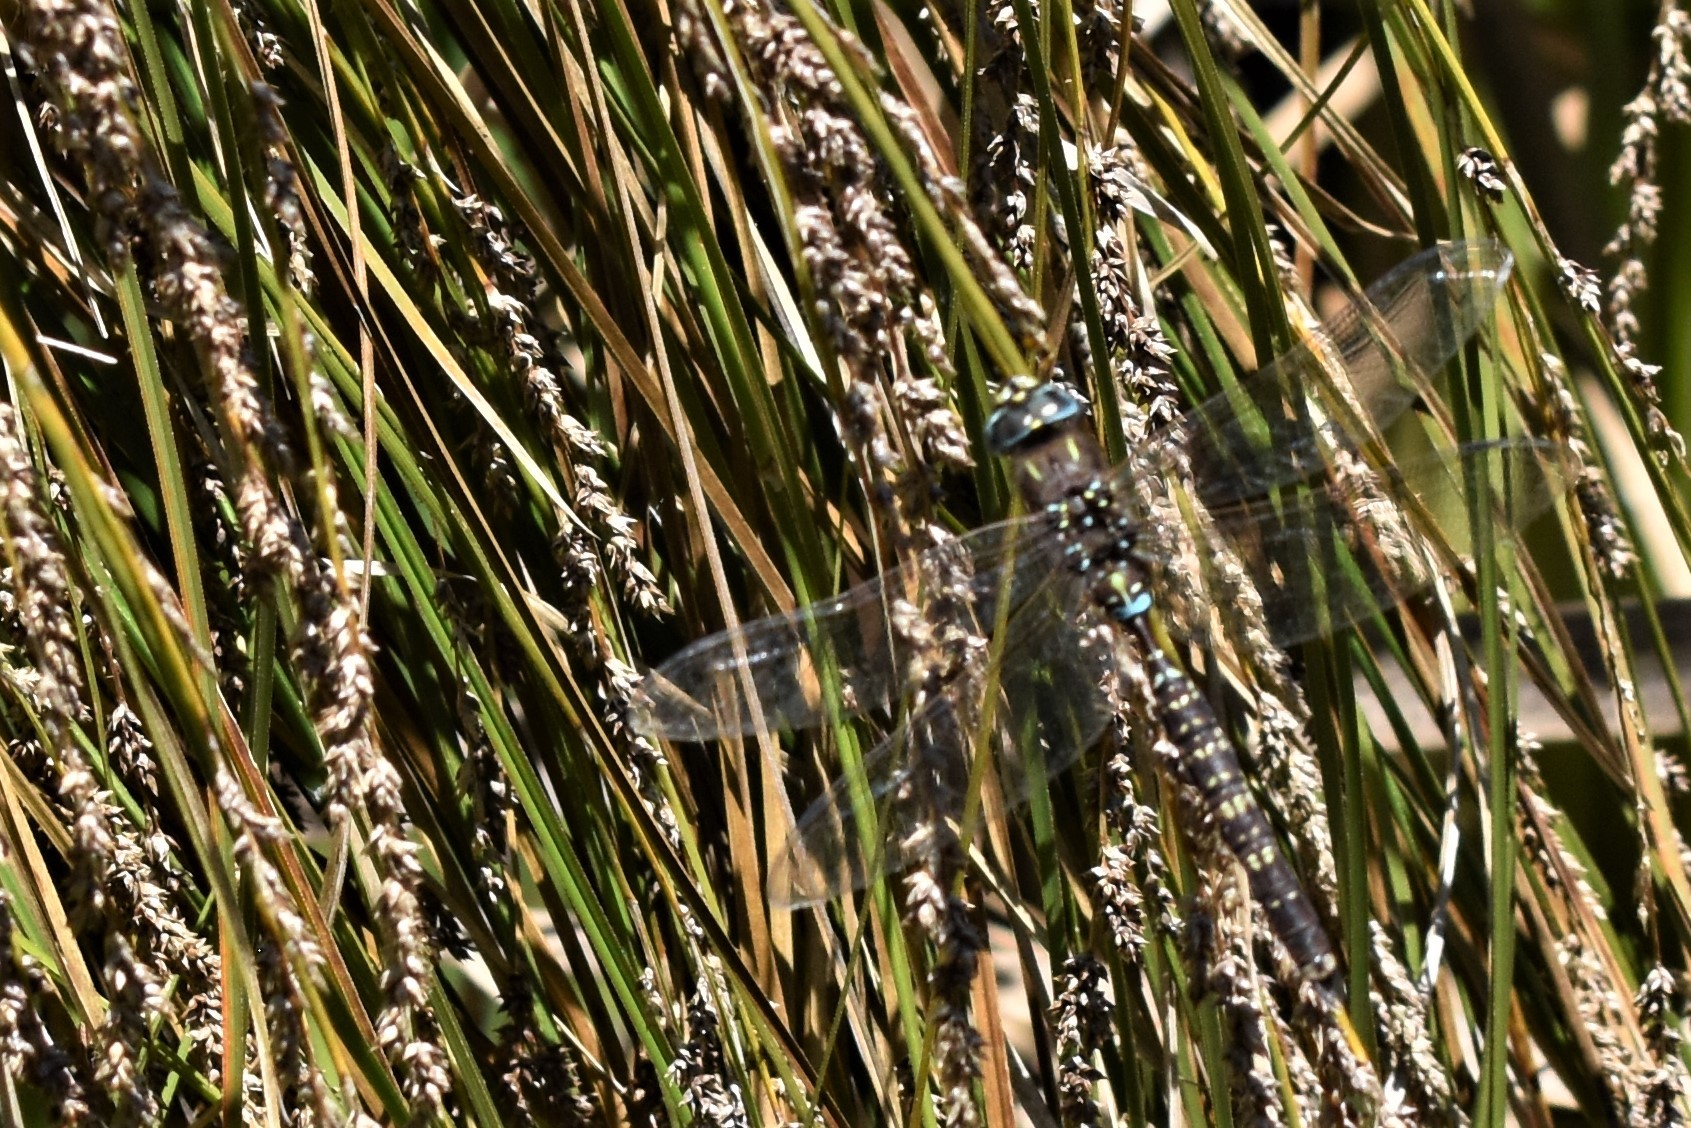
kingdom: Animalia
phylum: Arthropoda
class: Insecta
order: Odonata
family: Aeshnidae
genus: Aeshna
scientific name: Aeshna brevistyla
